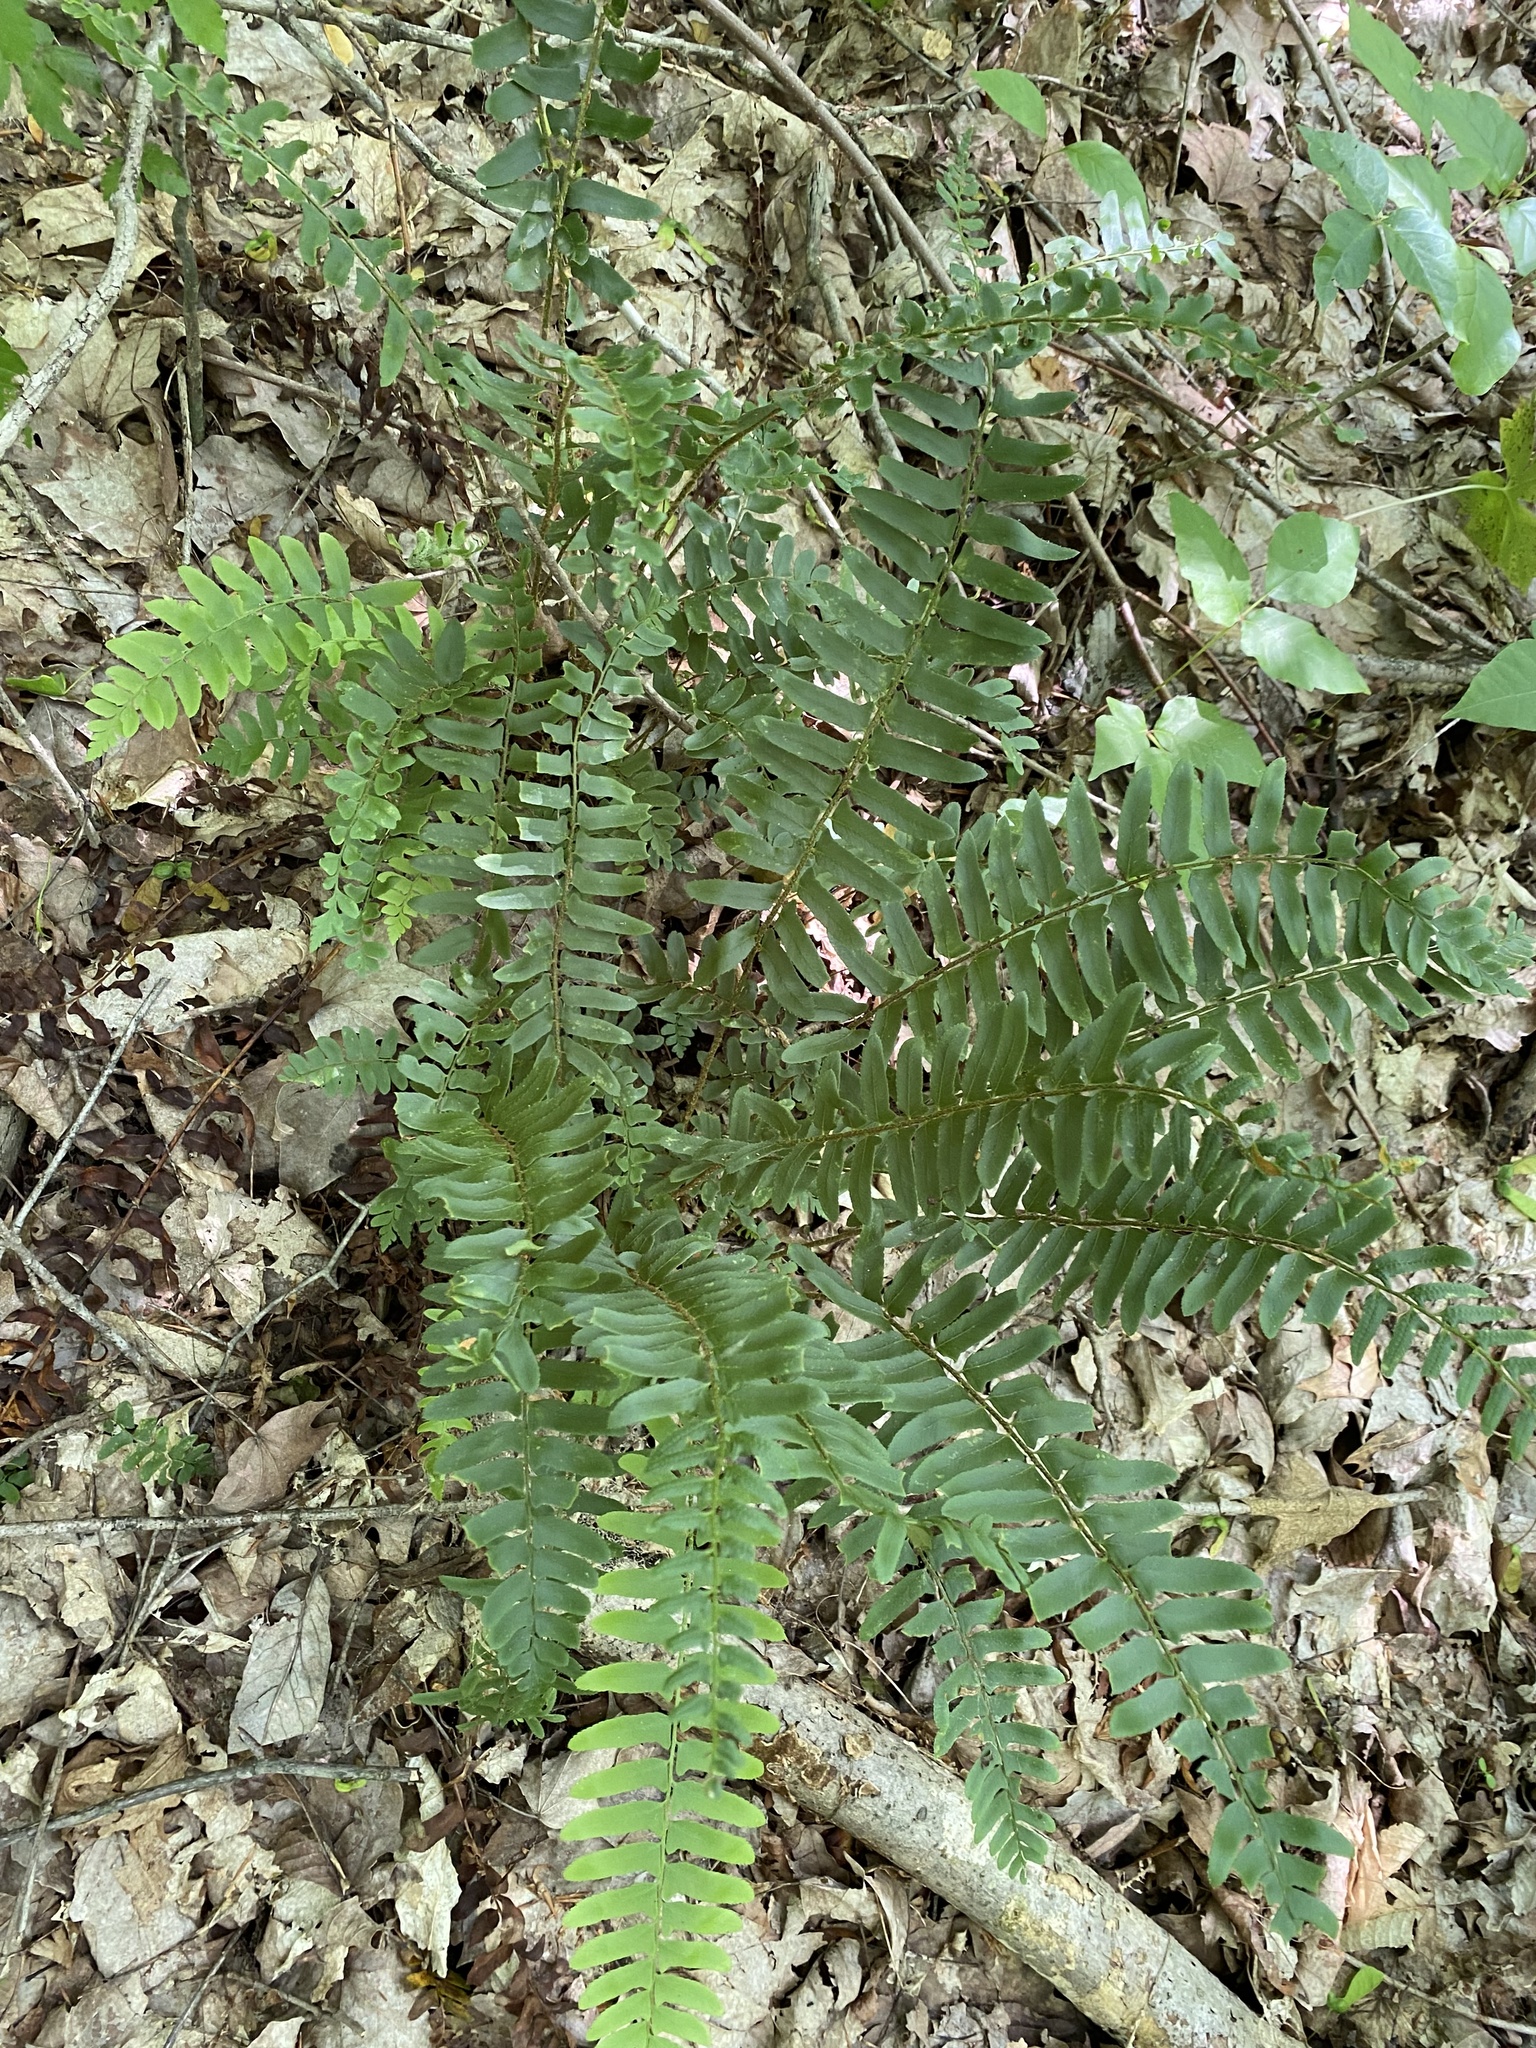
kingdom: Plantae
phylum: Tracheophyta
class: Polypodiopsida
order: Polypodiales
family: Dryopteridaceae
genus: Polystichum
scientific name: Polystichum acrostichoides
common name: Christmas fern
